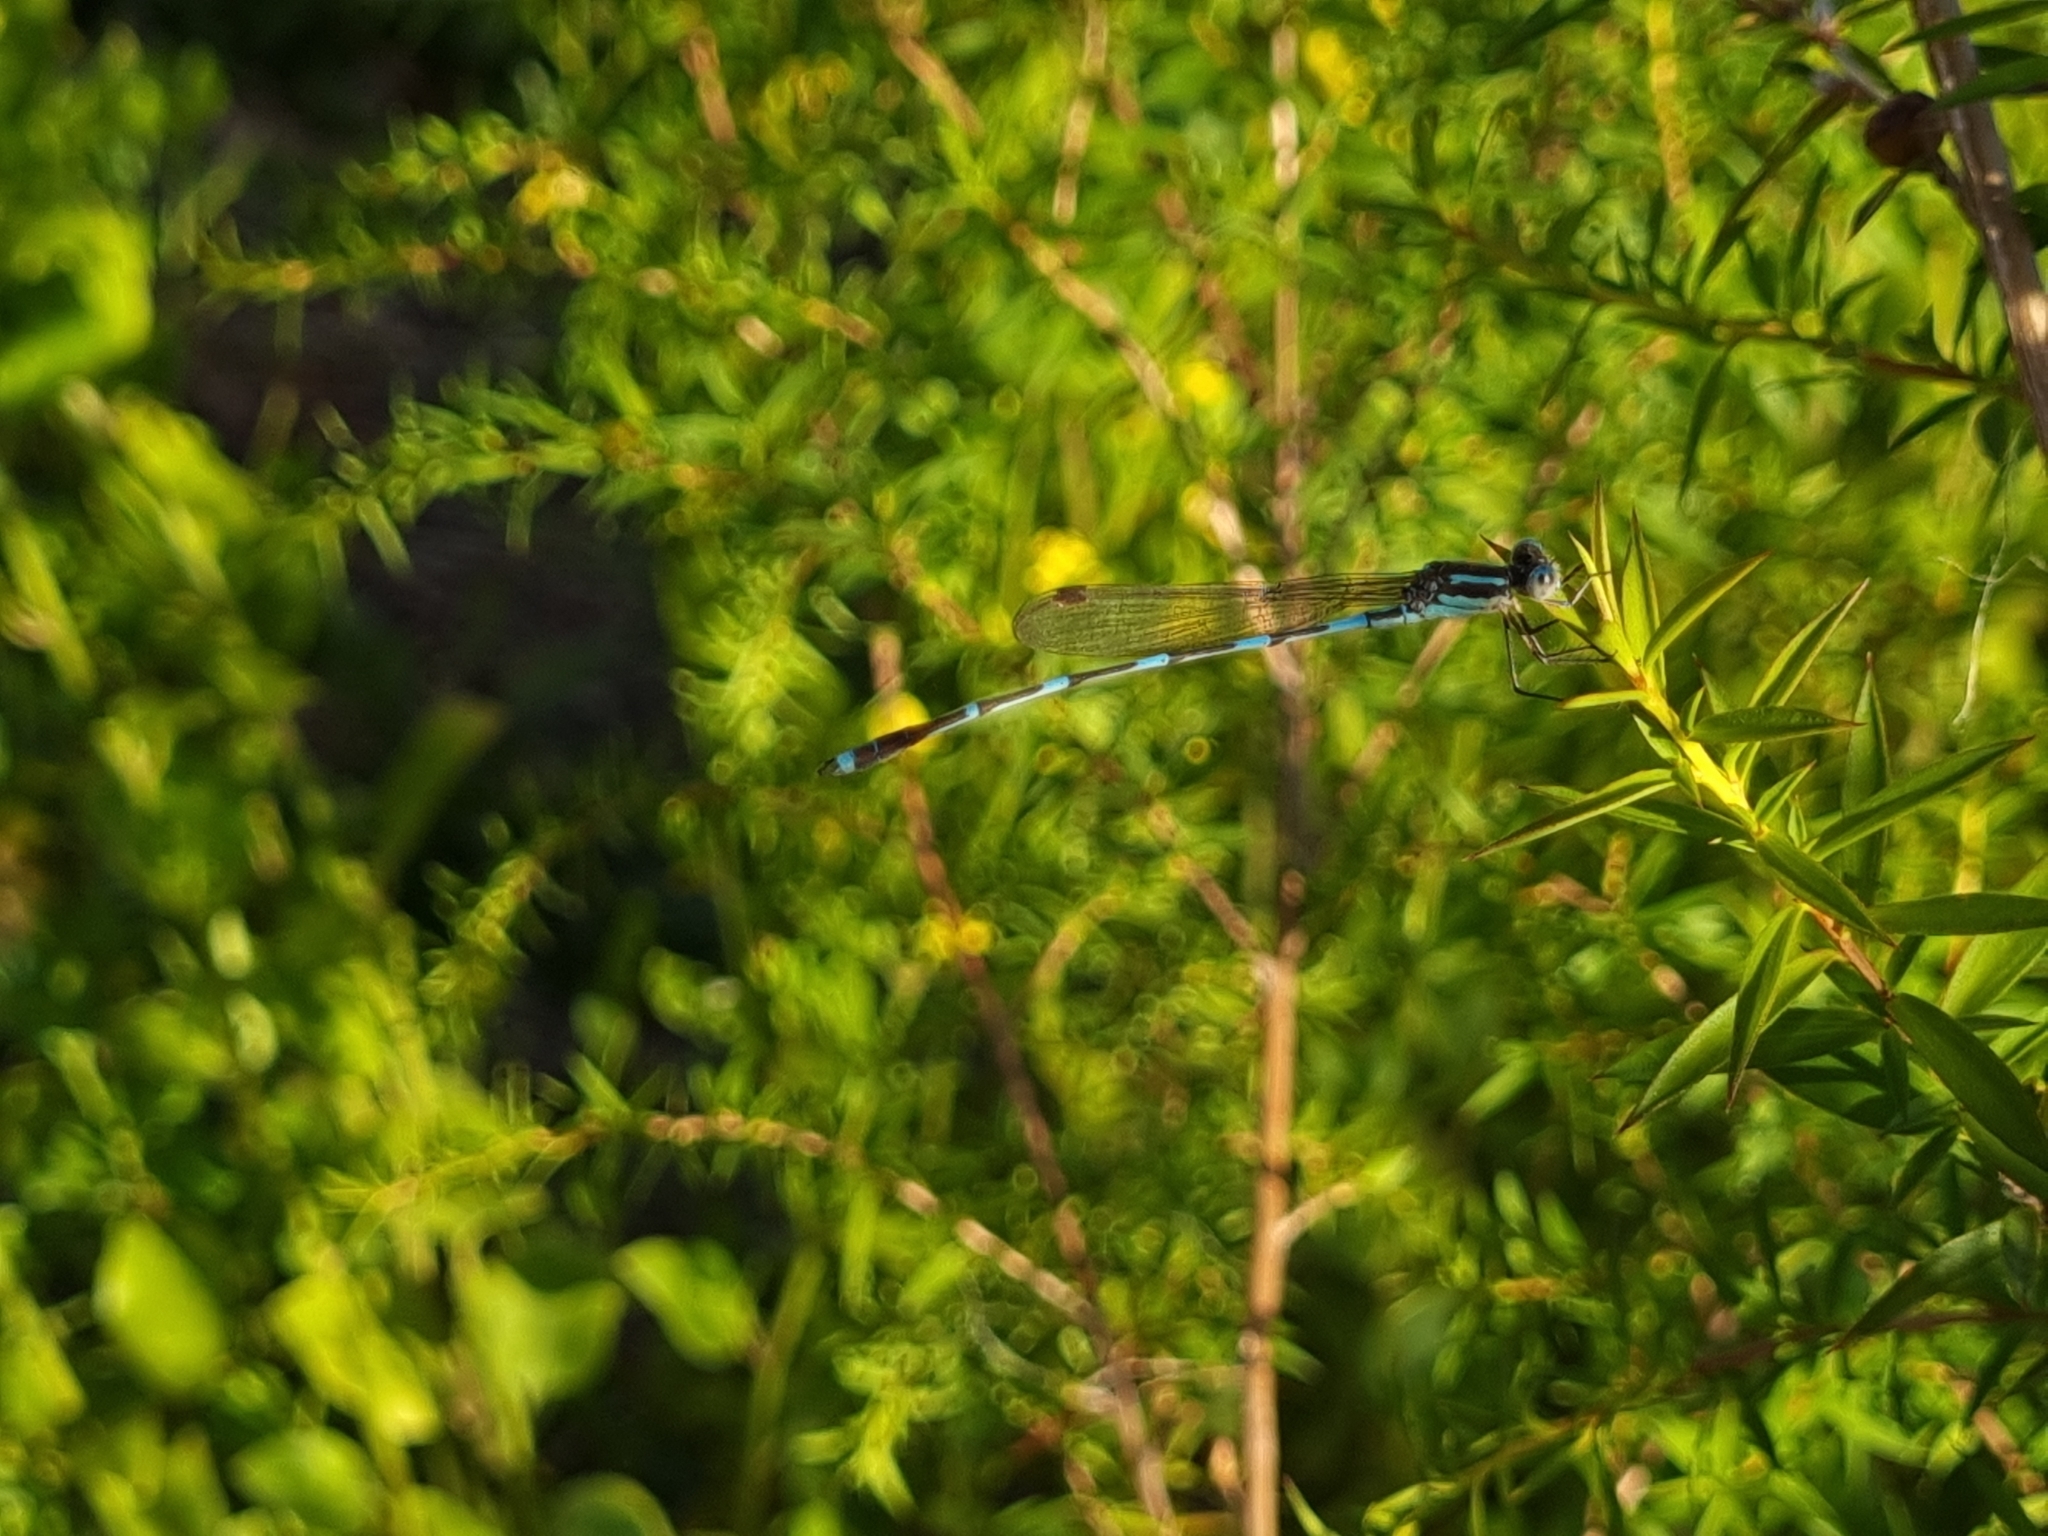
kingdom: Animalia
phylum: Arthropoda
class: Insecta
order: Odonata
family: Lestidae
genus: Austrolestes
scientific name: Austrolestes leda
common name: Wandering ringtail
